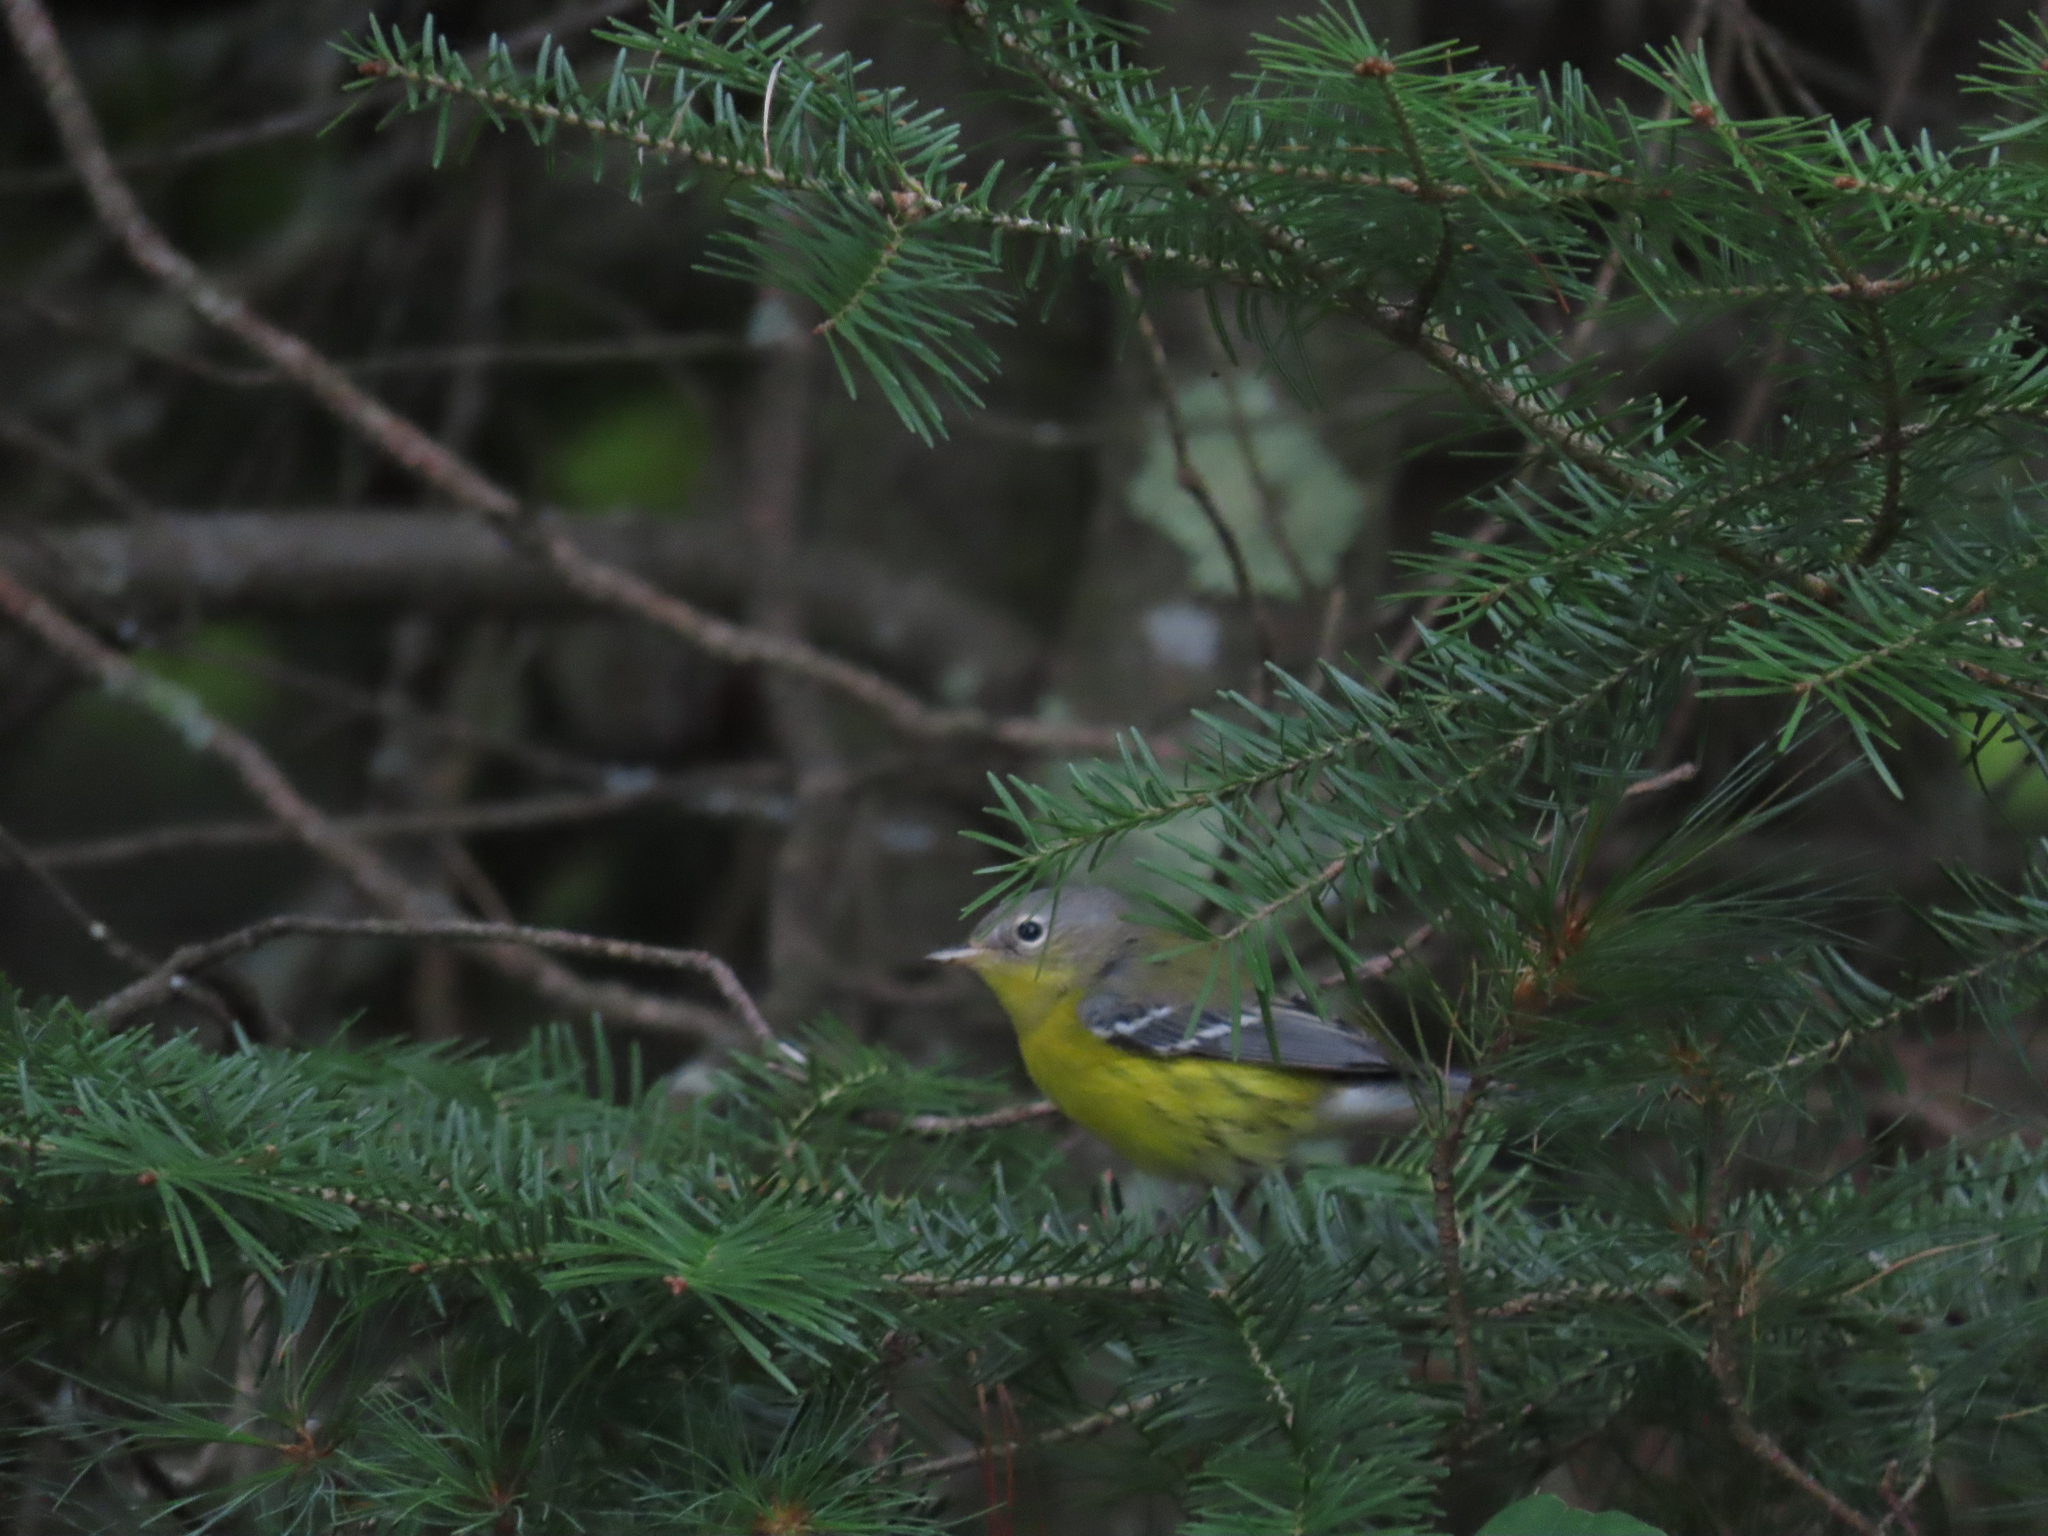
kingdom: Animalia
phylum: Chordata
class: Aves
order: Passeriformes
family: Parulidae
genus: Setophaga
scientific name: Setophaga magnolia
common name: Magnolia warbler
